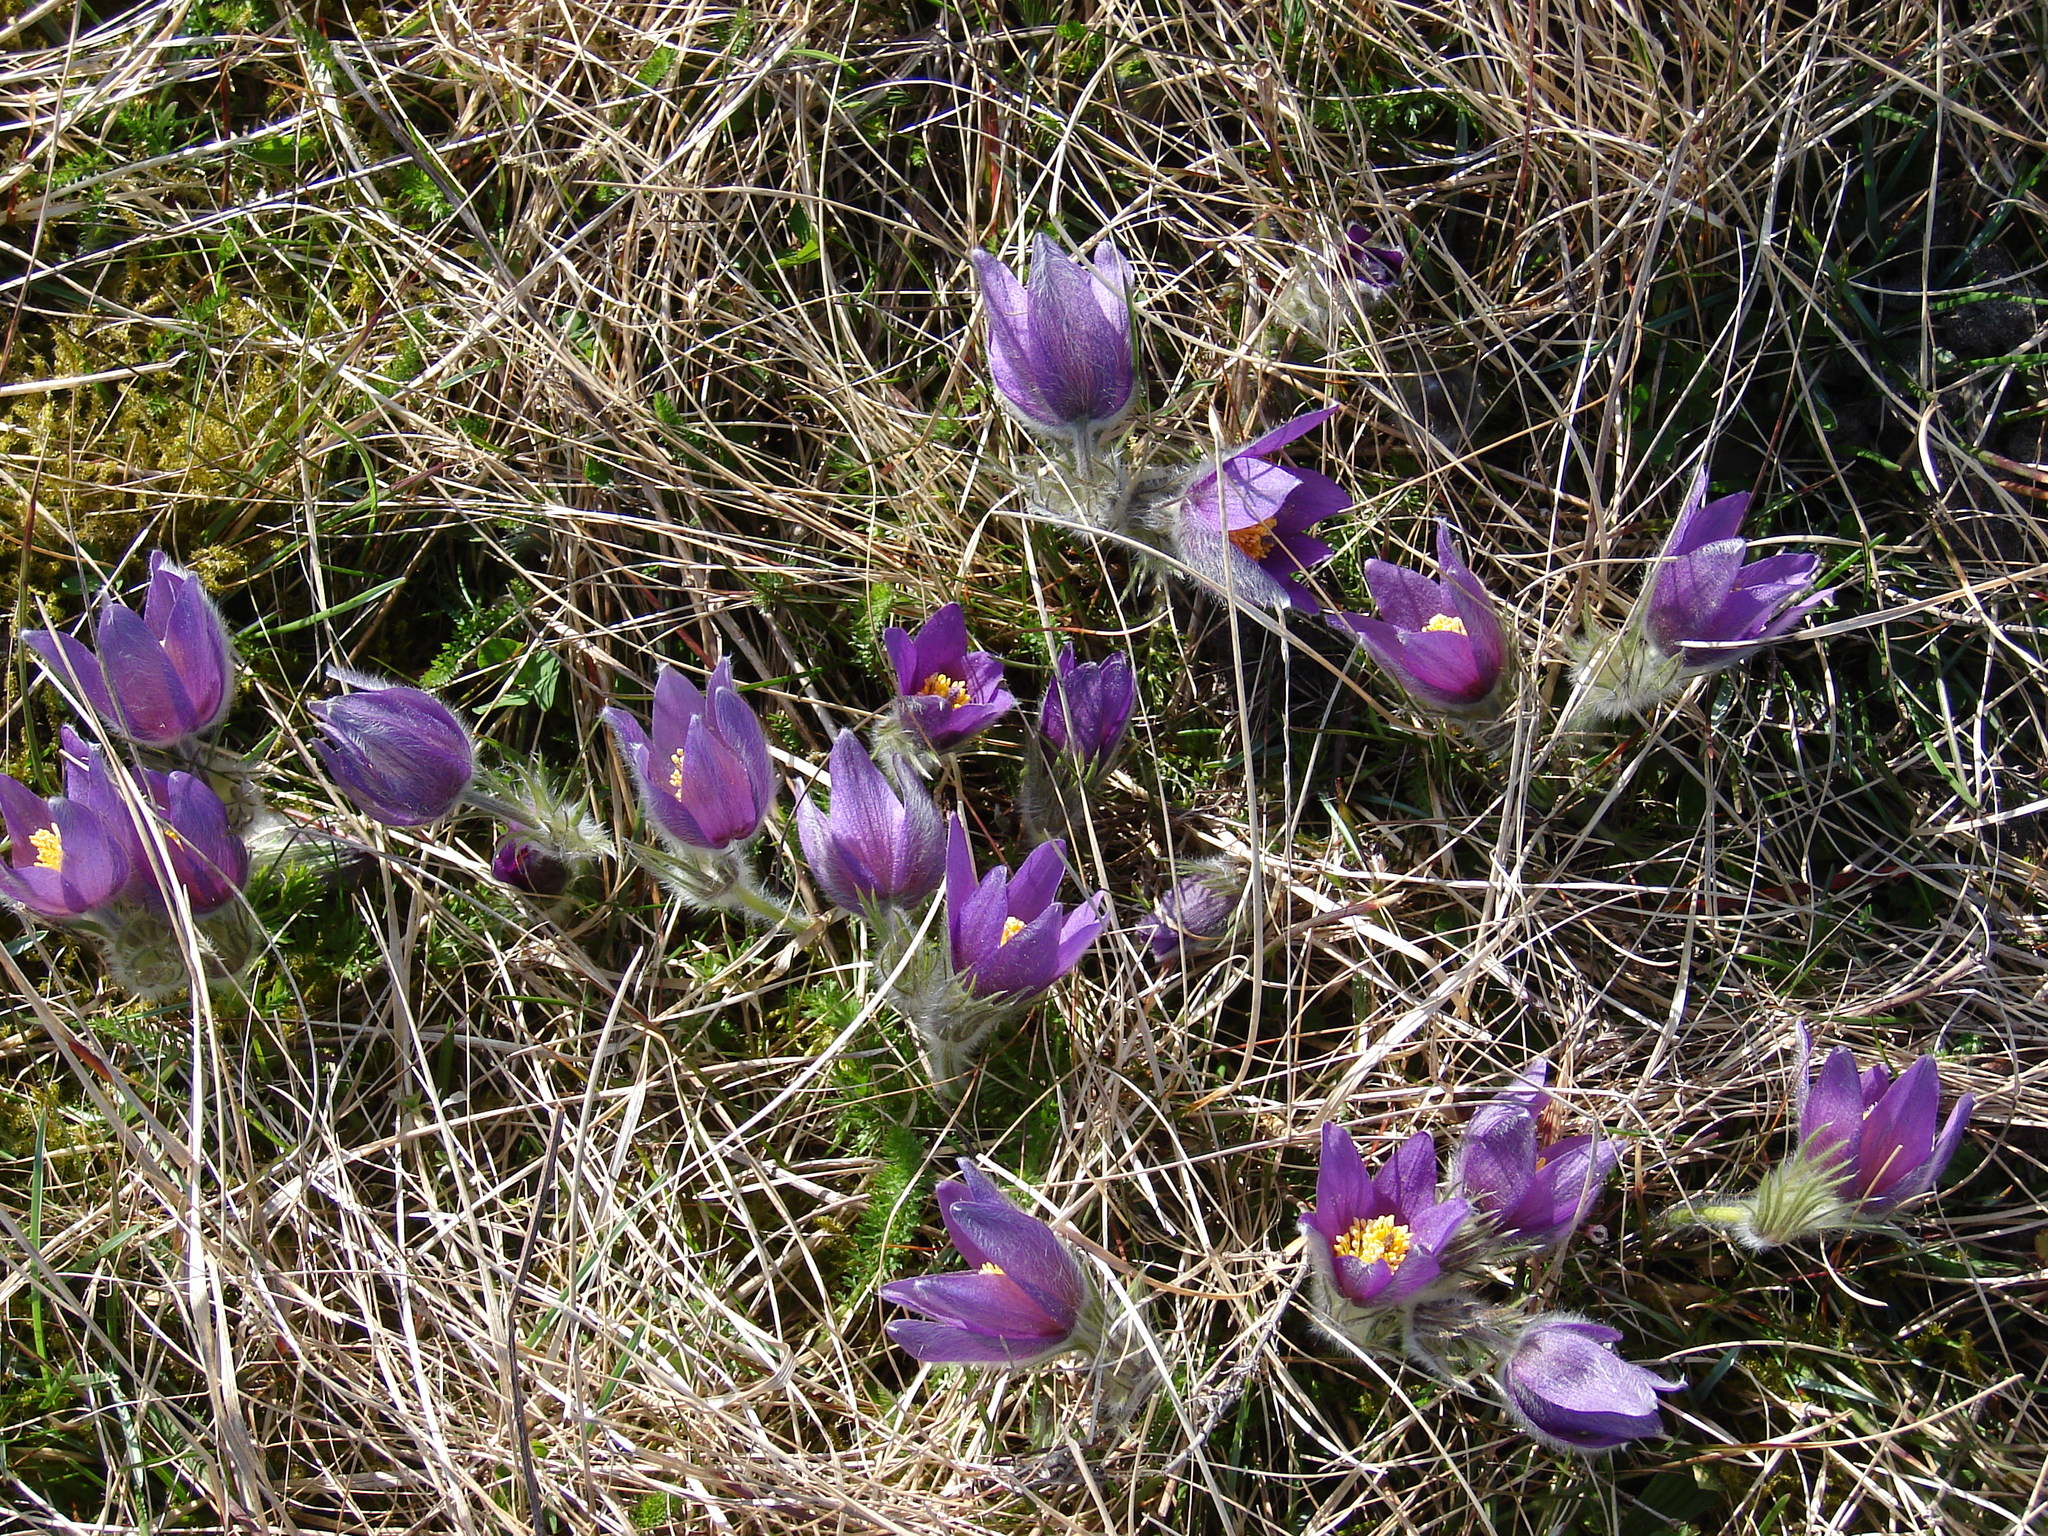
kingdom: Plantae
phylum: Tracheophyta
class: Magnoliopsida
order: Ranunculales
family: Ranunculaceae
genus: Pulsatilla
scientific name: Pulsatilla vulgaris
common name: Pasqueflower
